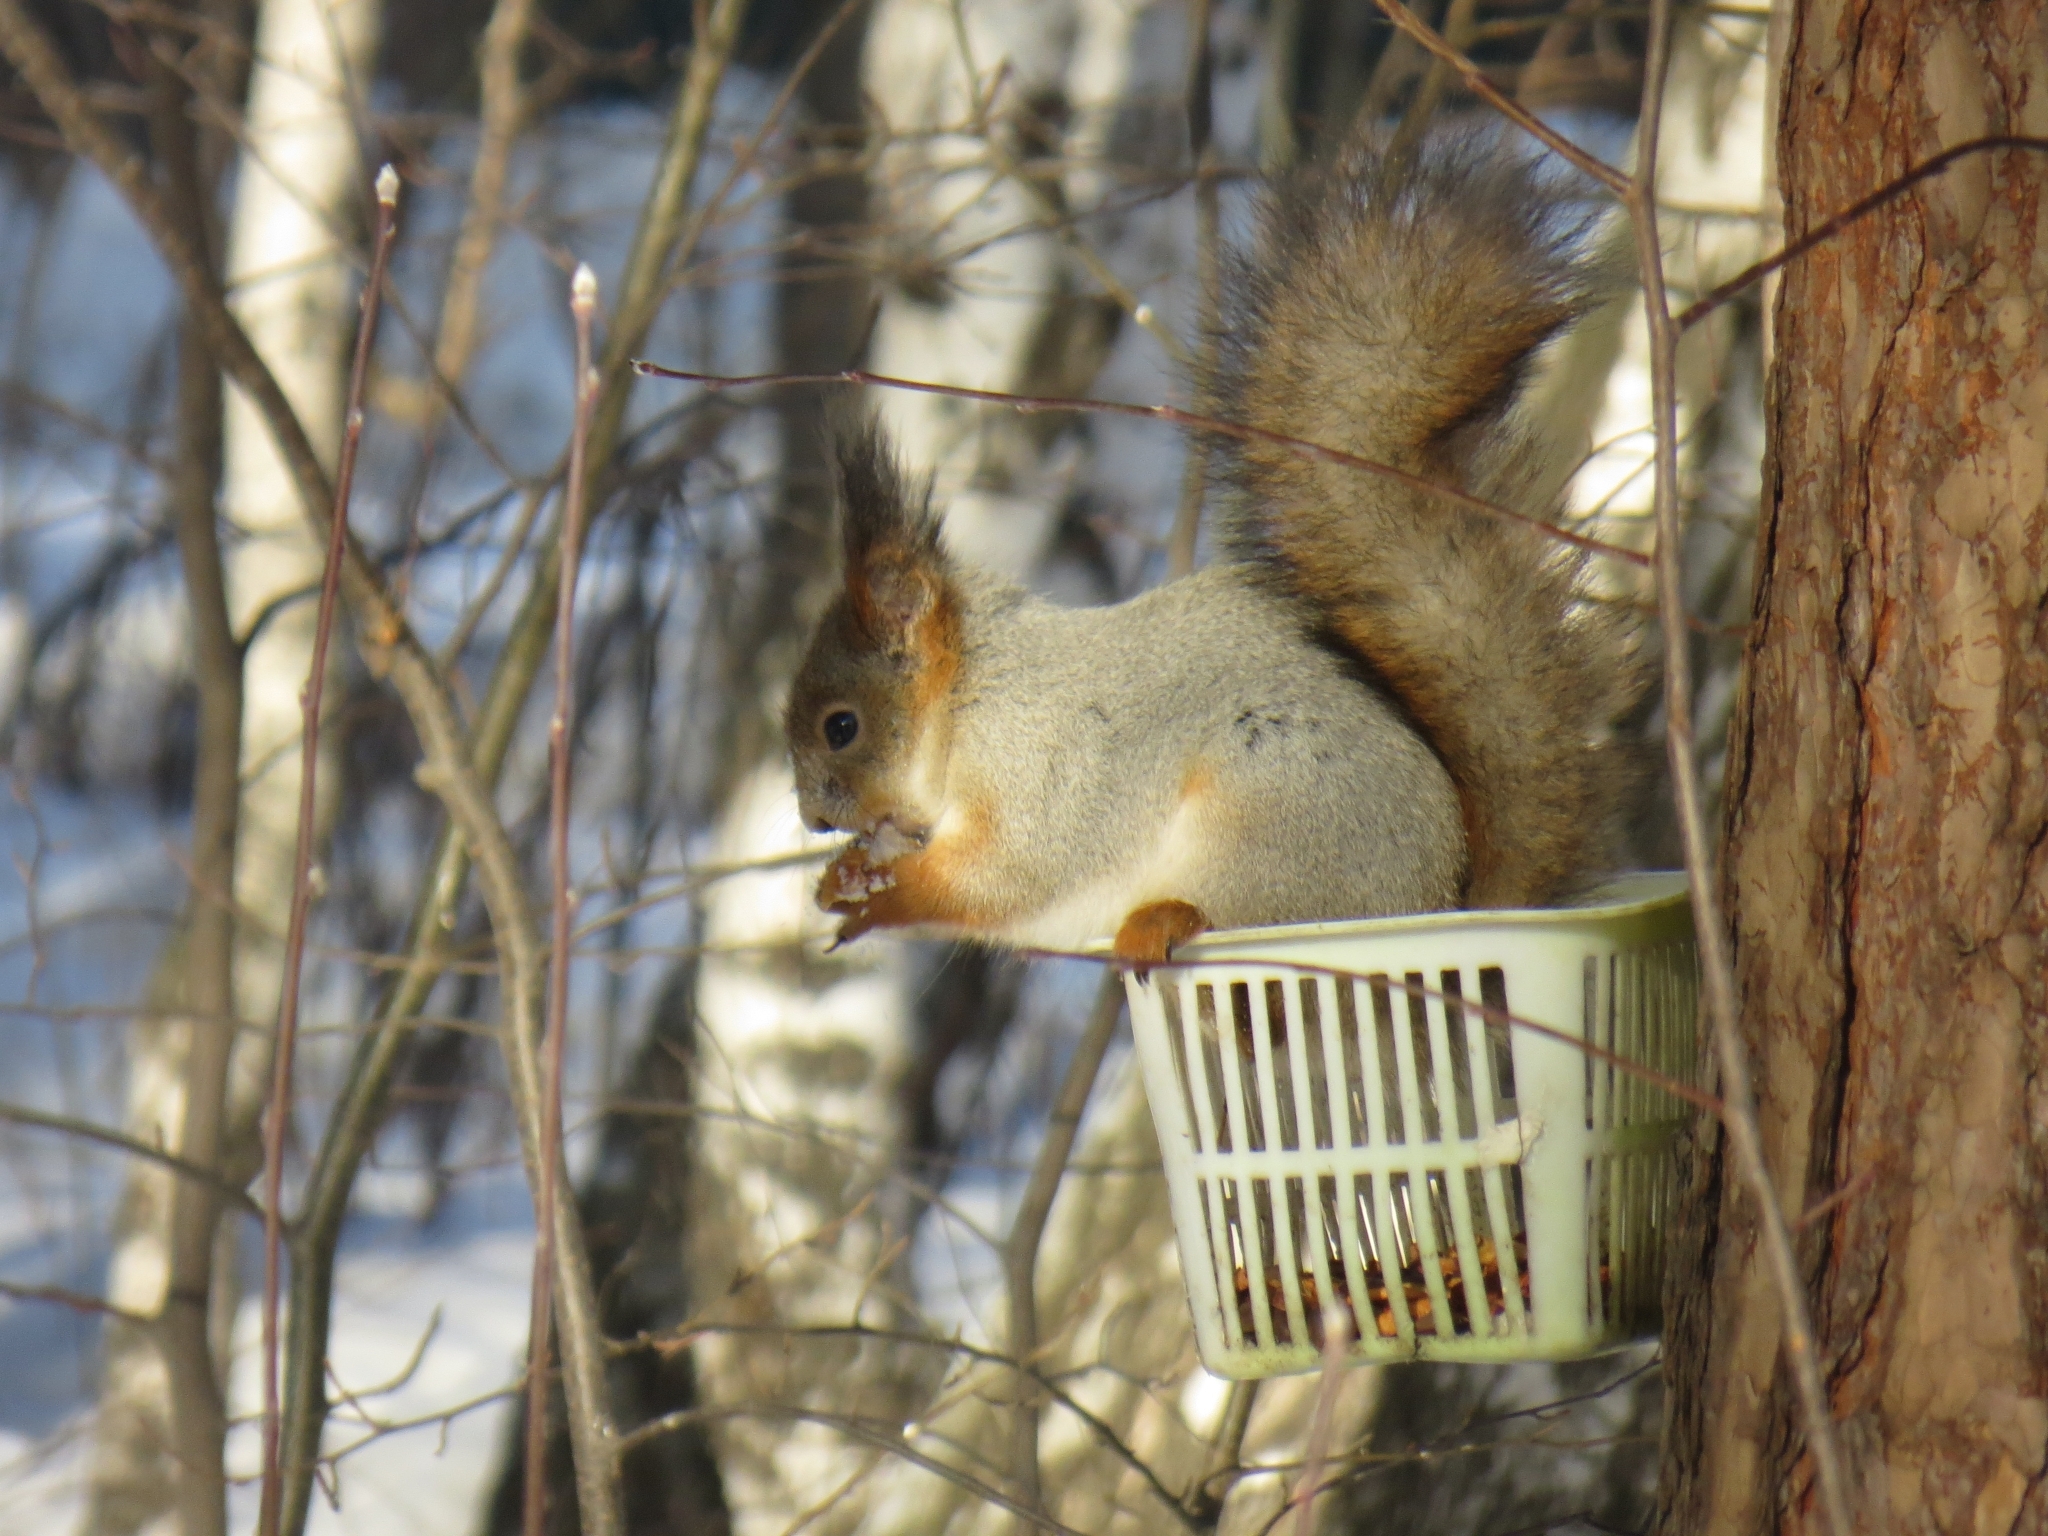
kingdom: Animalia
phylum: Chordata
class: Mammalia
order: Rodentia
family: Sciuridae
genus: Sciurus
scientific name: Sciurus vulgaris
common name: Eurasian red squirrel
